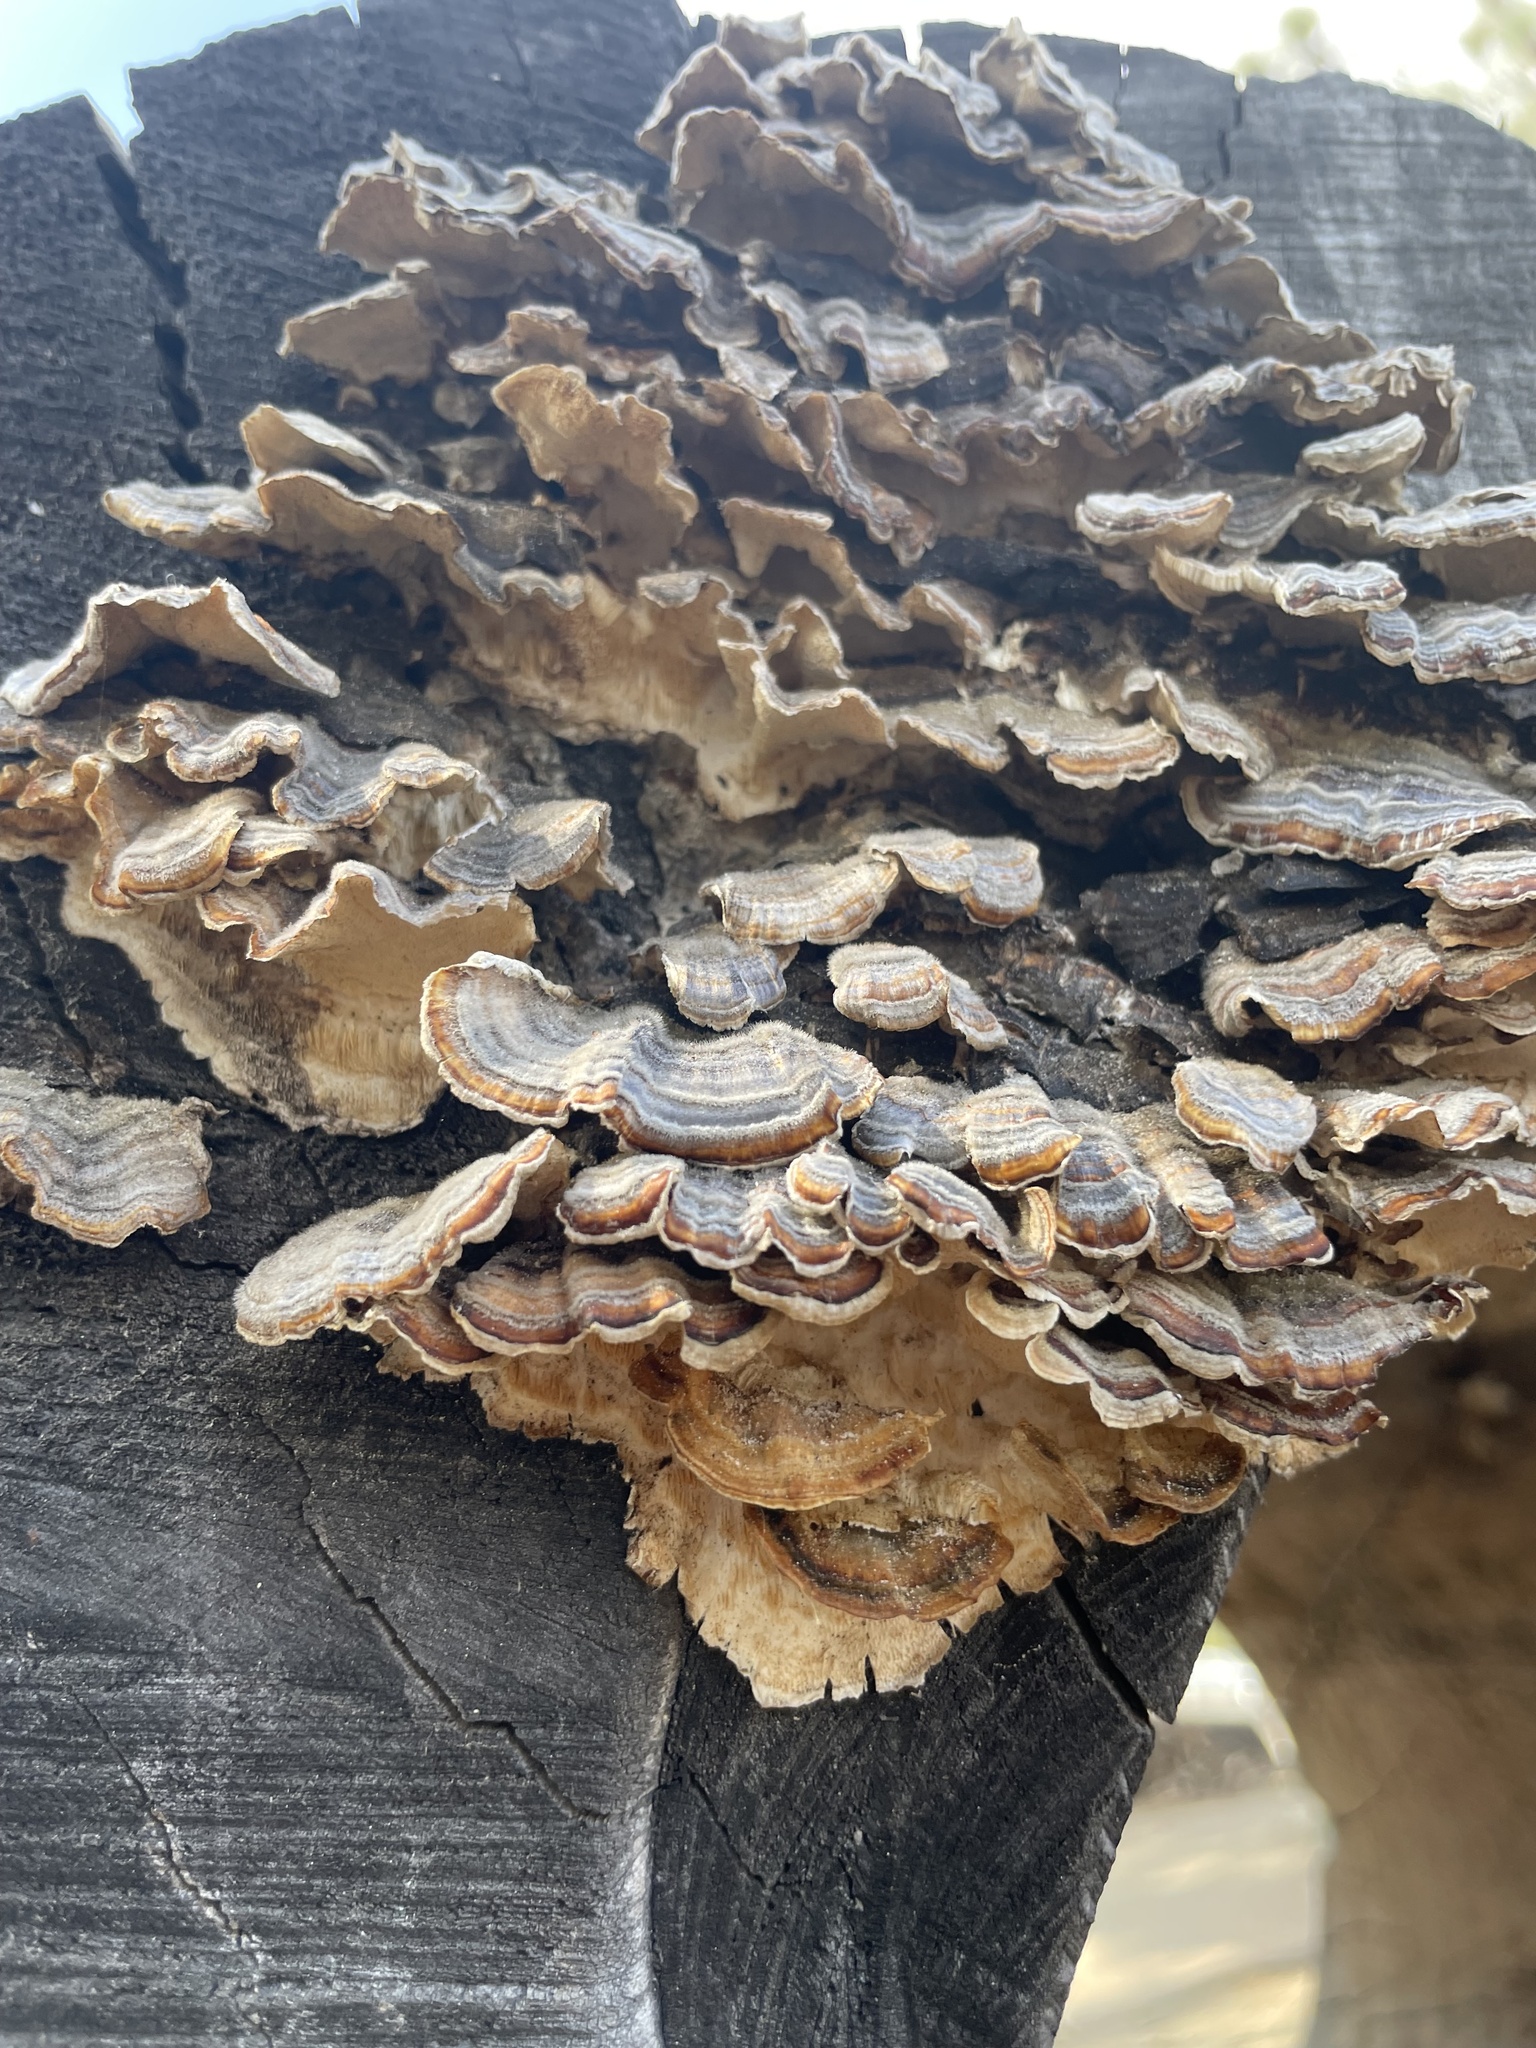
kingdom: Fungi
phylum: Basidiomycota
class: Agaricomycetes
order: Polyporales
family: Polyporaceae
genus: Trametes
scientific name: Trametes versicolor
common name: Turkeytail
